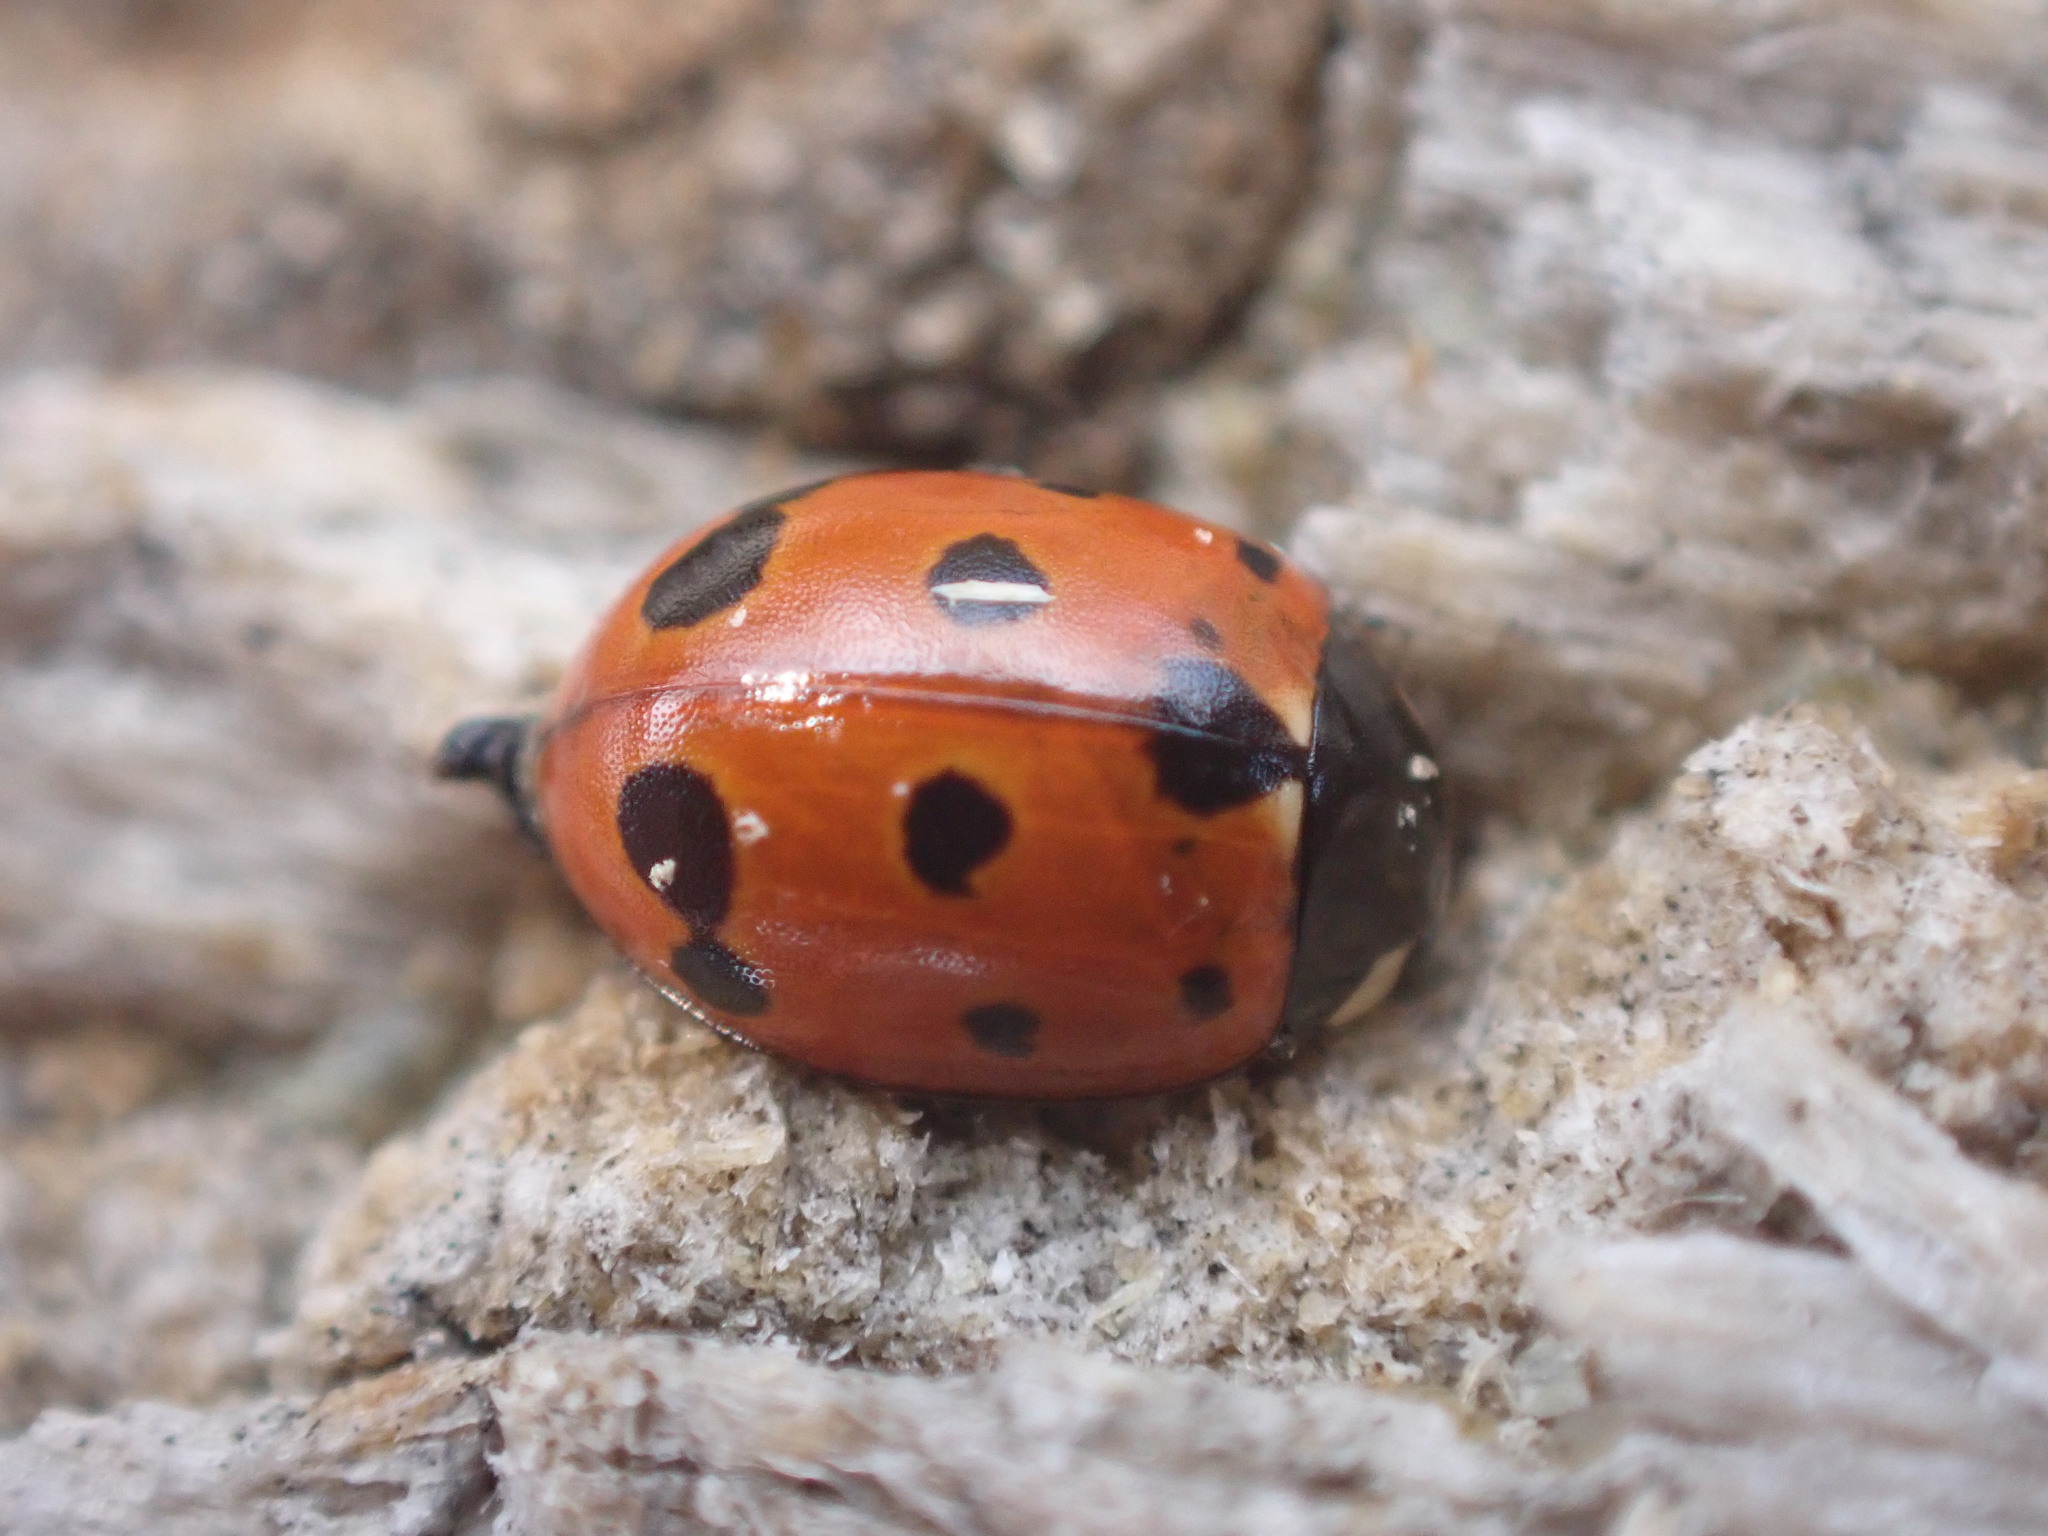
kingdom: Animalia
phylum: Arthropoda
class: Insecta
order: Coleoptera
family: Coccinellidae
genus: Coccinella
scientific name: Coccinella undecimpunctata
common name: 11-spot ladybird
